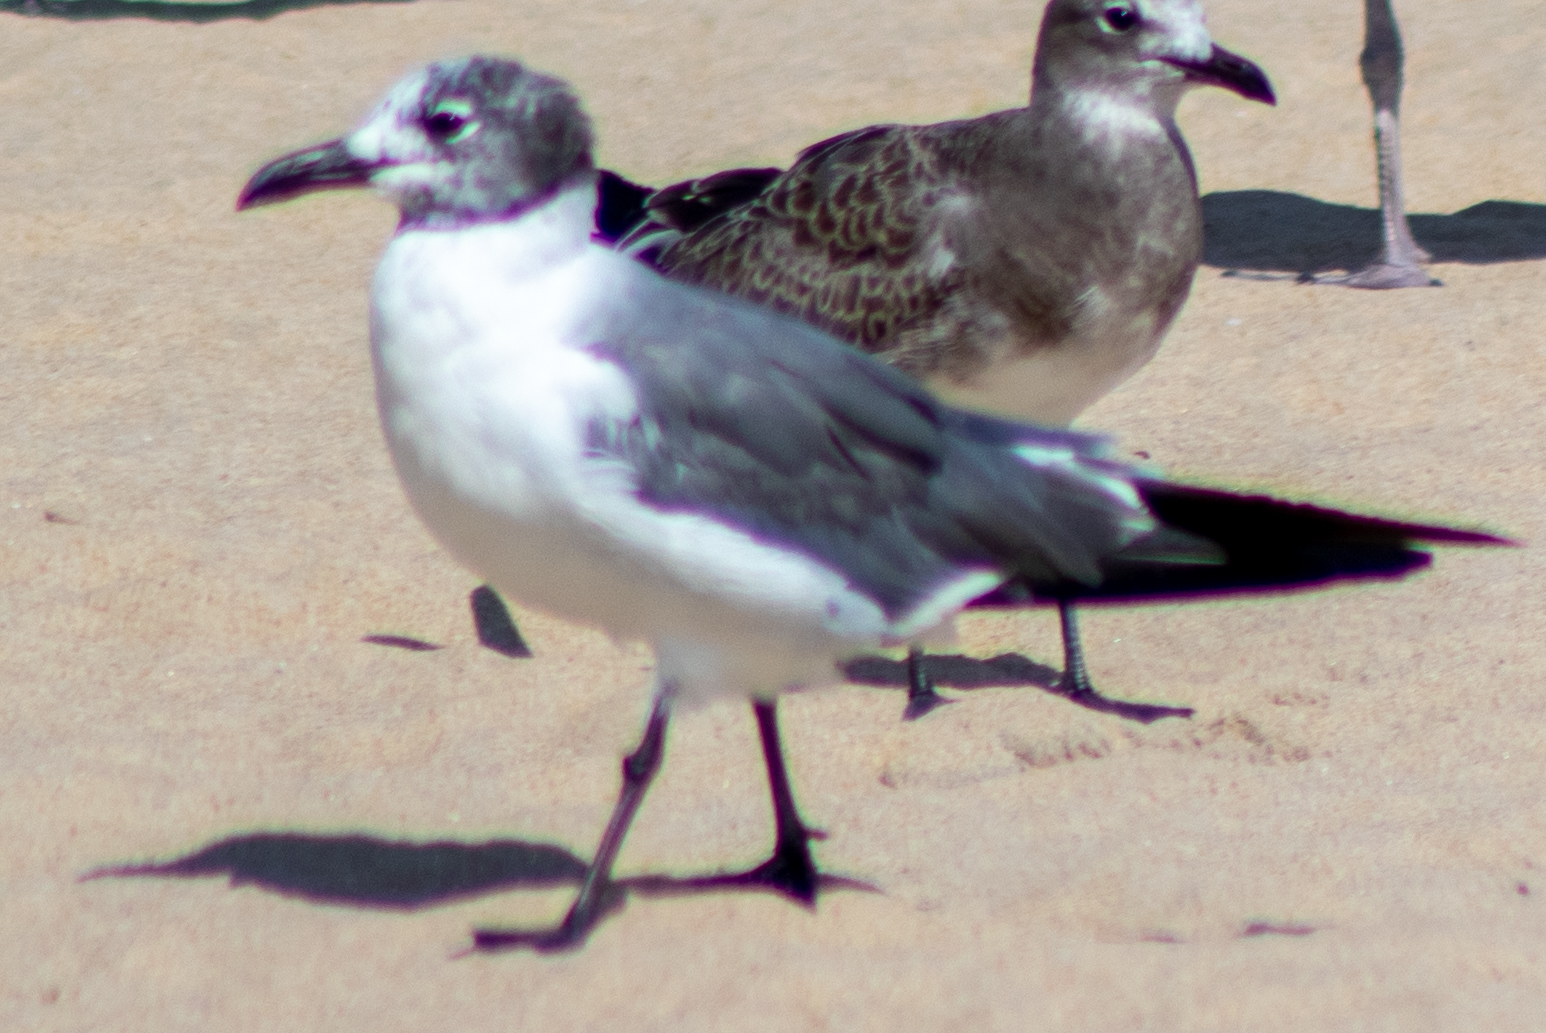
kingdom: Animalia
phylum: Chordata
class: Aves
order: Charadriiformes
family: Laridae
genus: Leucophaeus
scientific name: Leucophaeus atricilla
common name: Laughing gull
